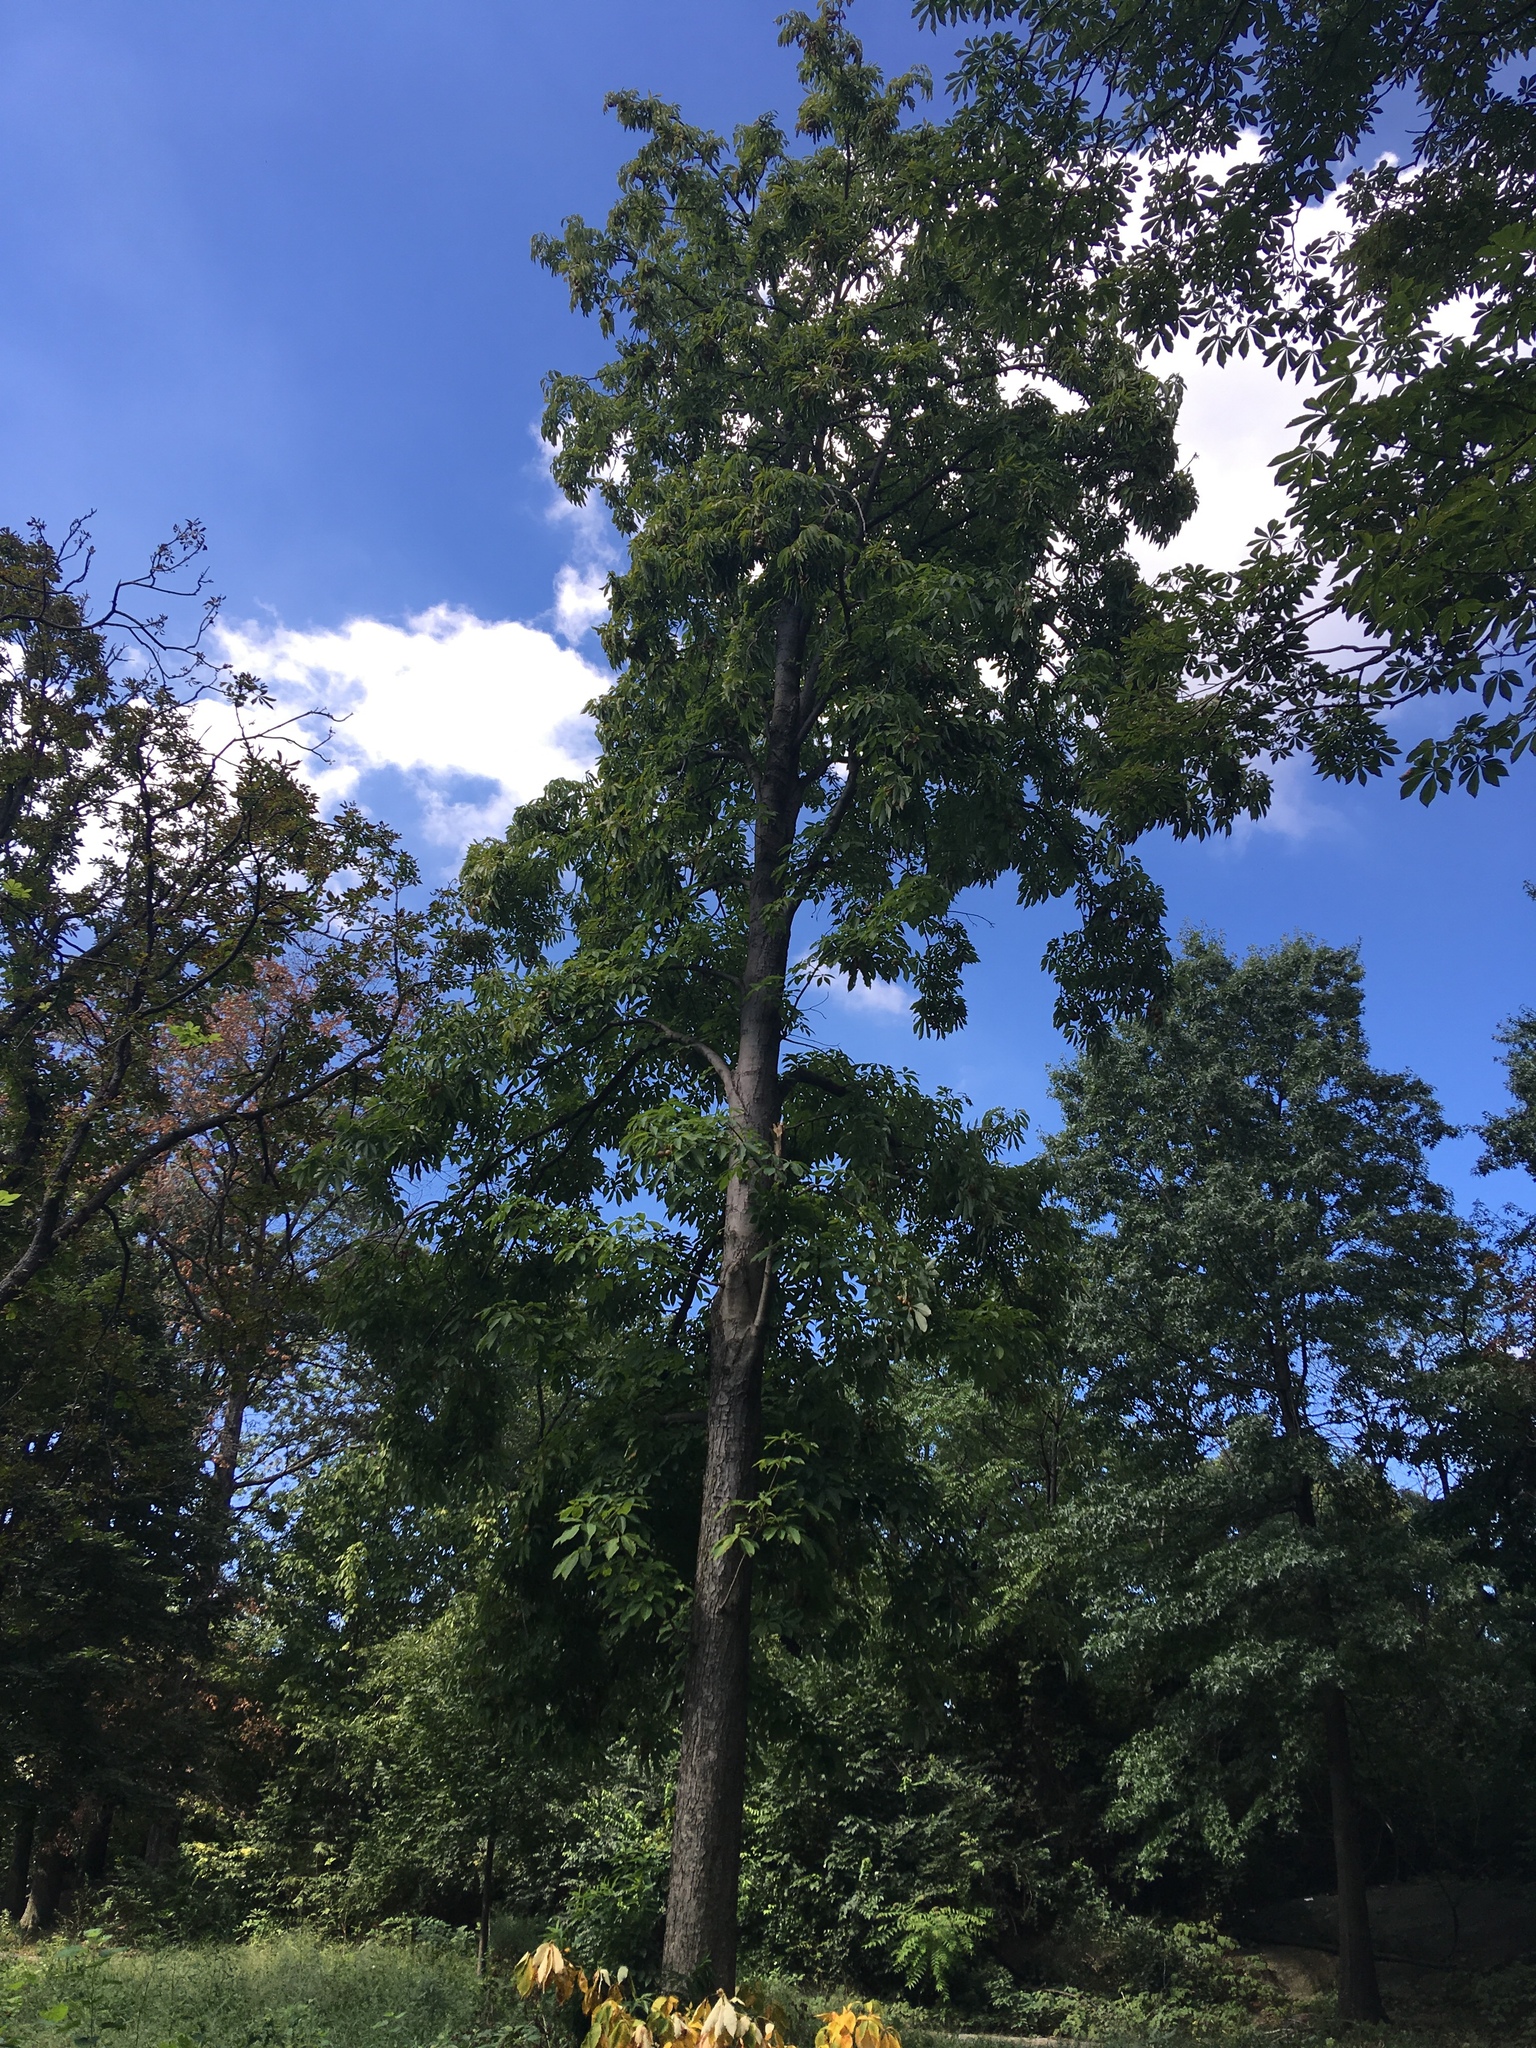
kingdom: Plantae
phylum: Tracheophyta
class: Magnoliopsida
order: Sapindales
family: Sapindaceae
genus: Aesculus
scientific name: Aesculus flava
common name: Yellow buckeye
